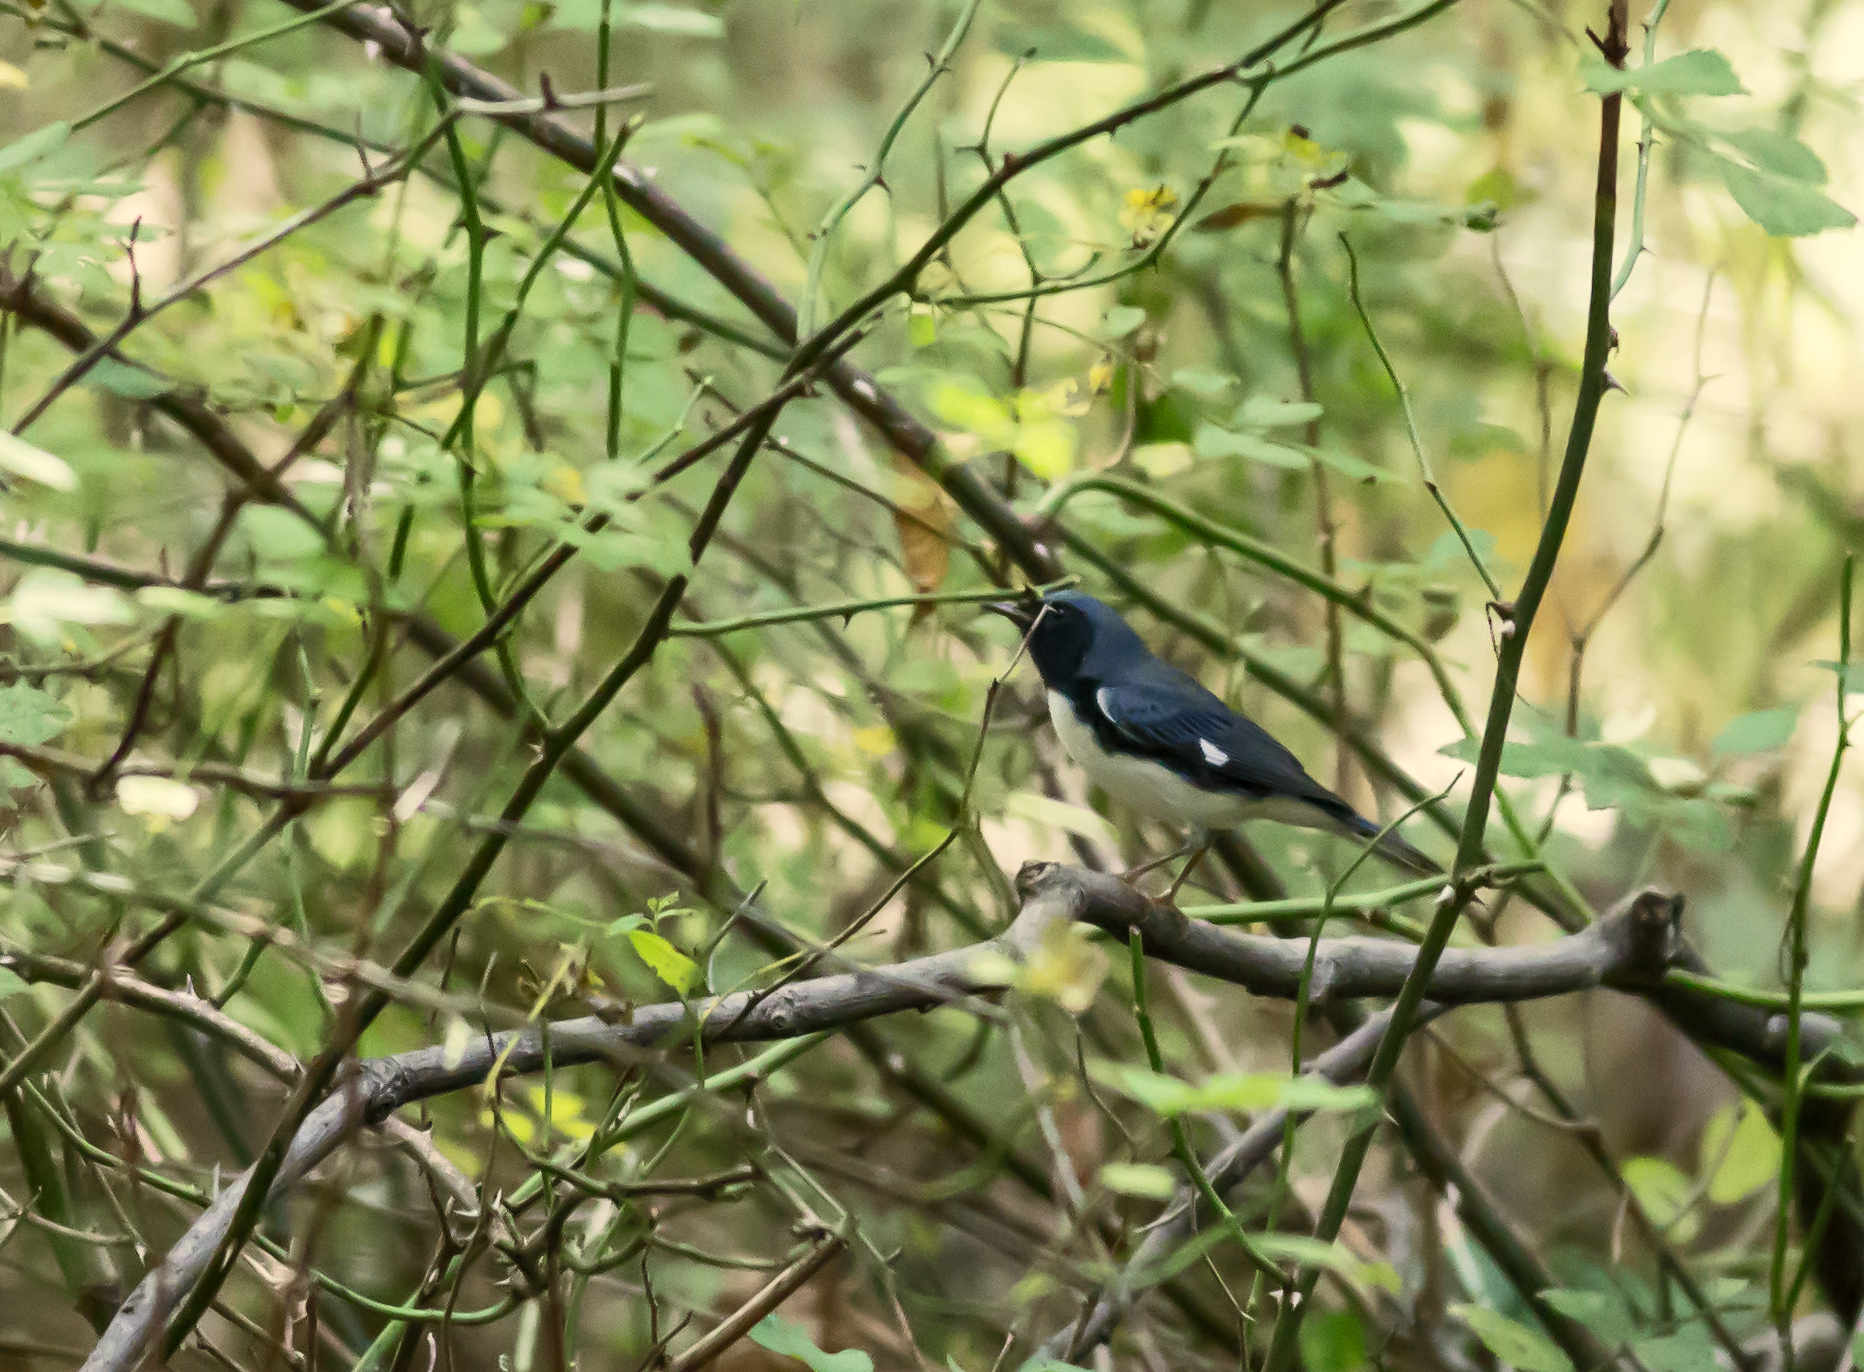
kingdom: Animalia
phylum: Chordata
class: Aves
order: Passeriformes
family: Parulidae
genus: Setophaga
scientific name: Setophaga caerulescens
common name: Black-throated blue warbler
